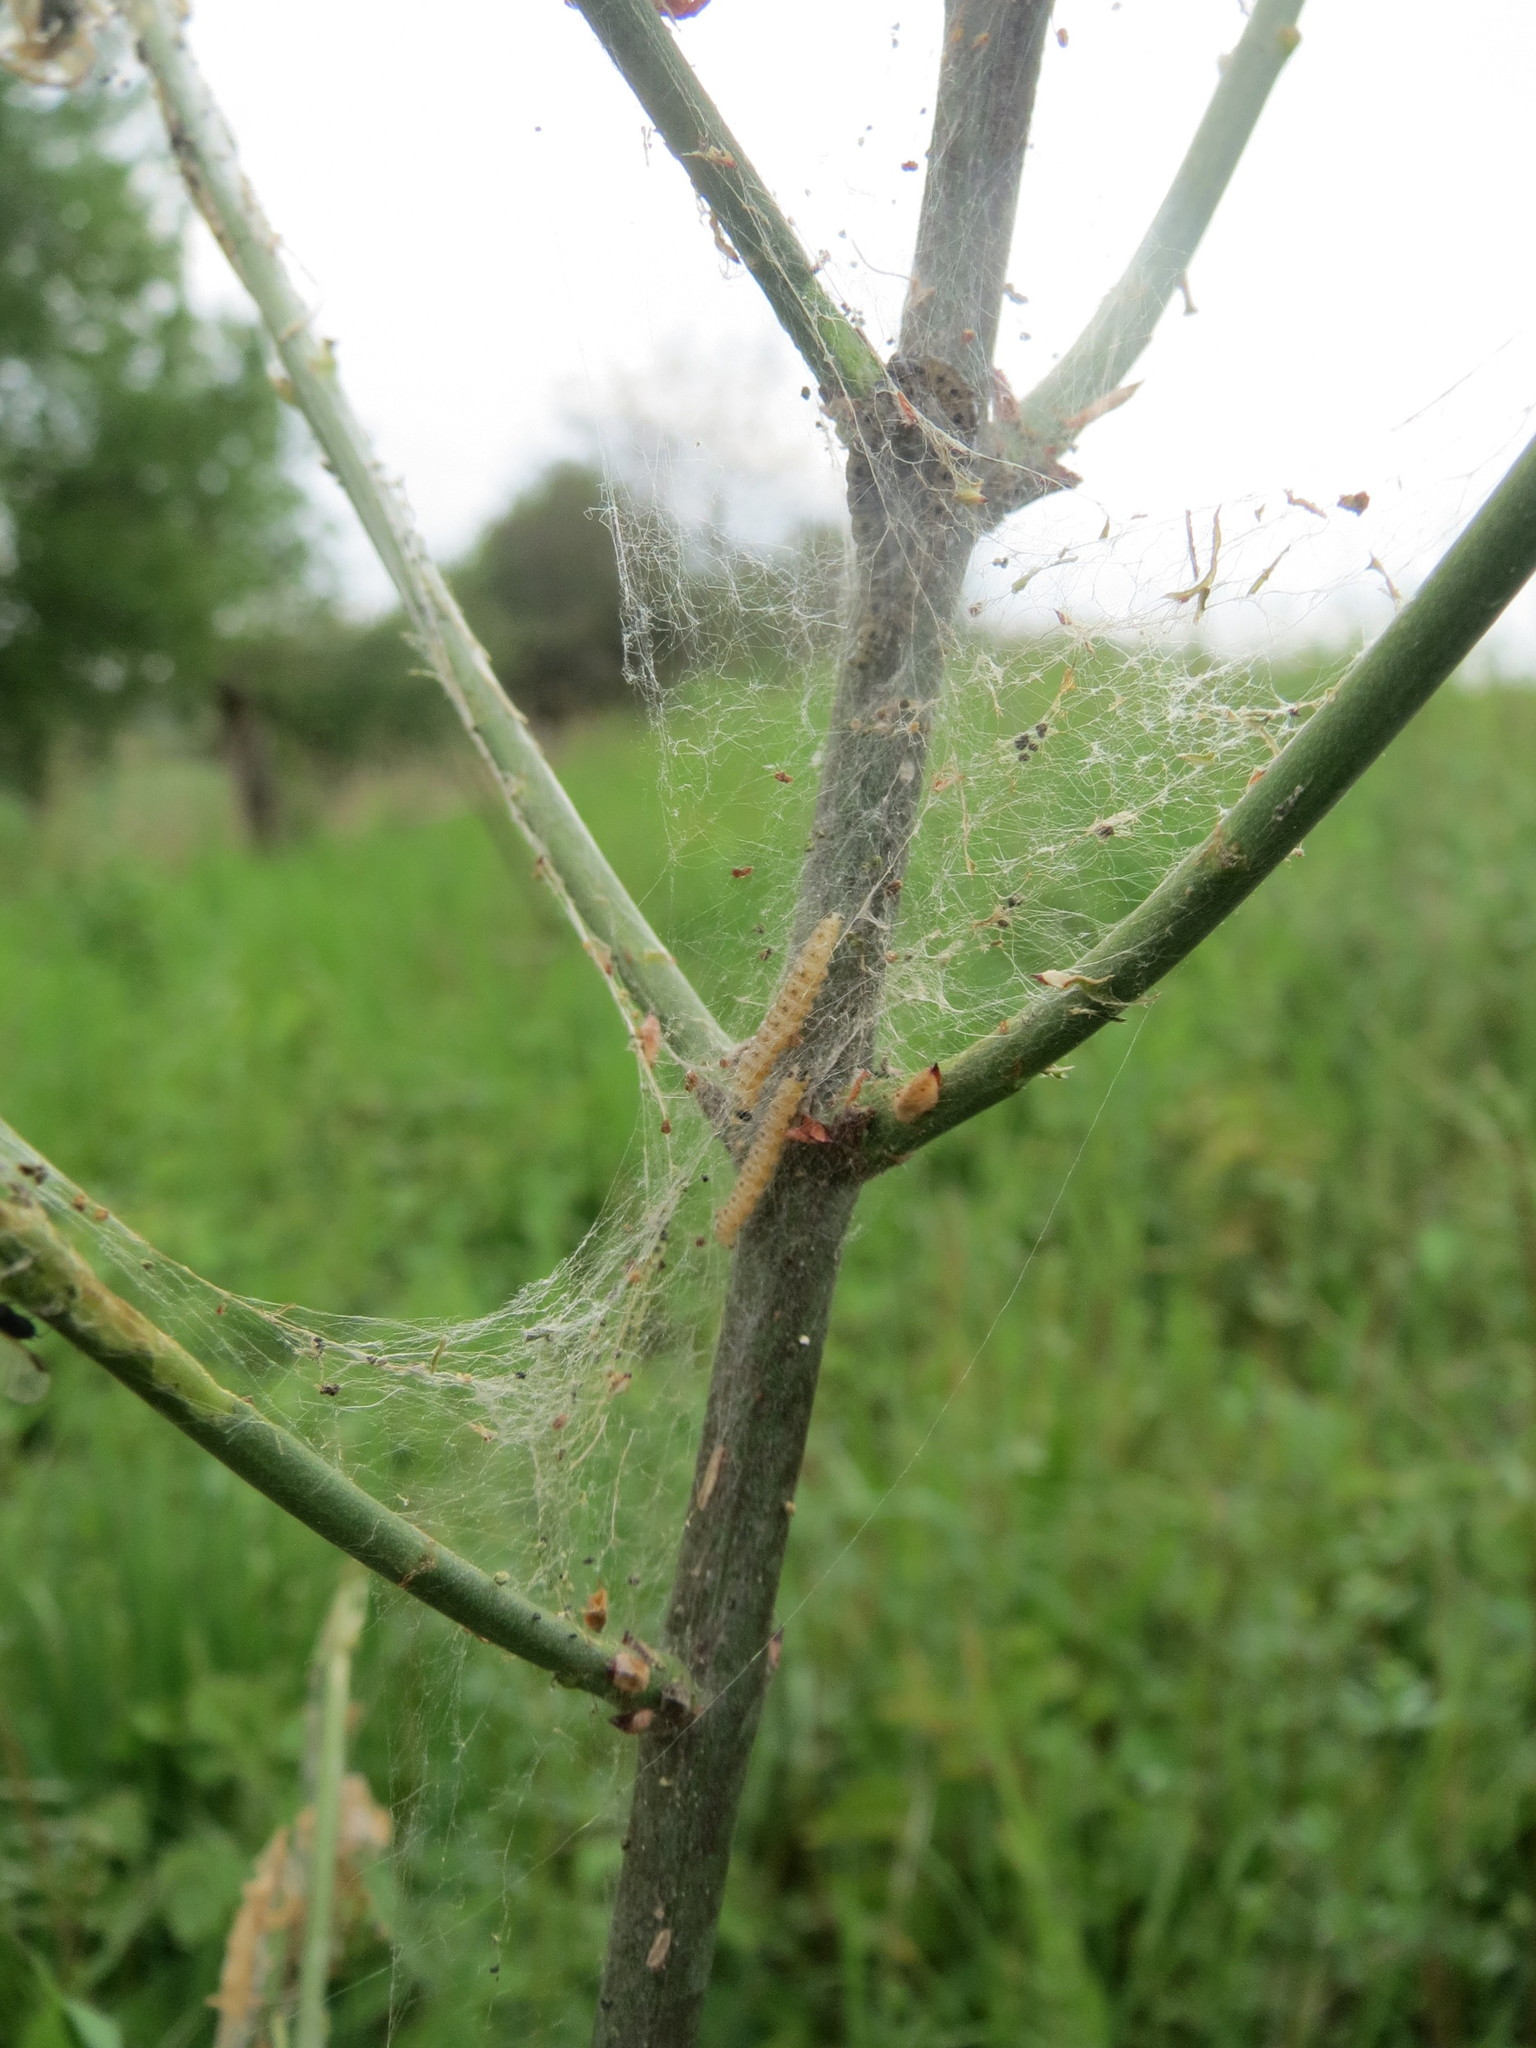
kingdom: Animalia
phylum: Arthropoda
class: Insecta
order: Lepidoptera
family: Yponomeutidae
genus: Yponomeuta
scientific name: Yponomeuta cagnagellus
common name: Spindle ermine
